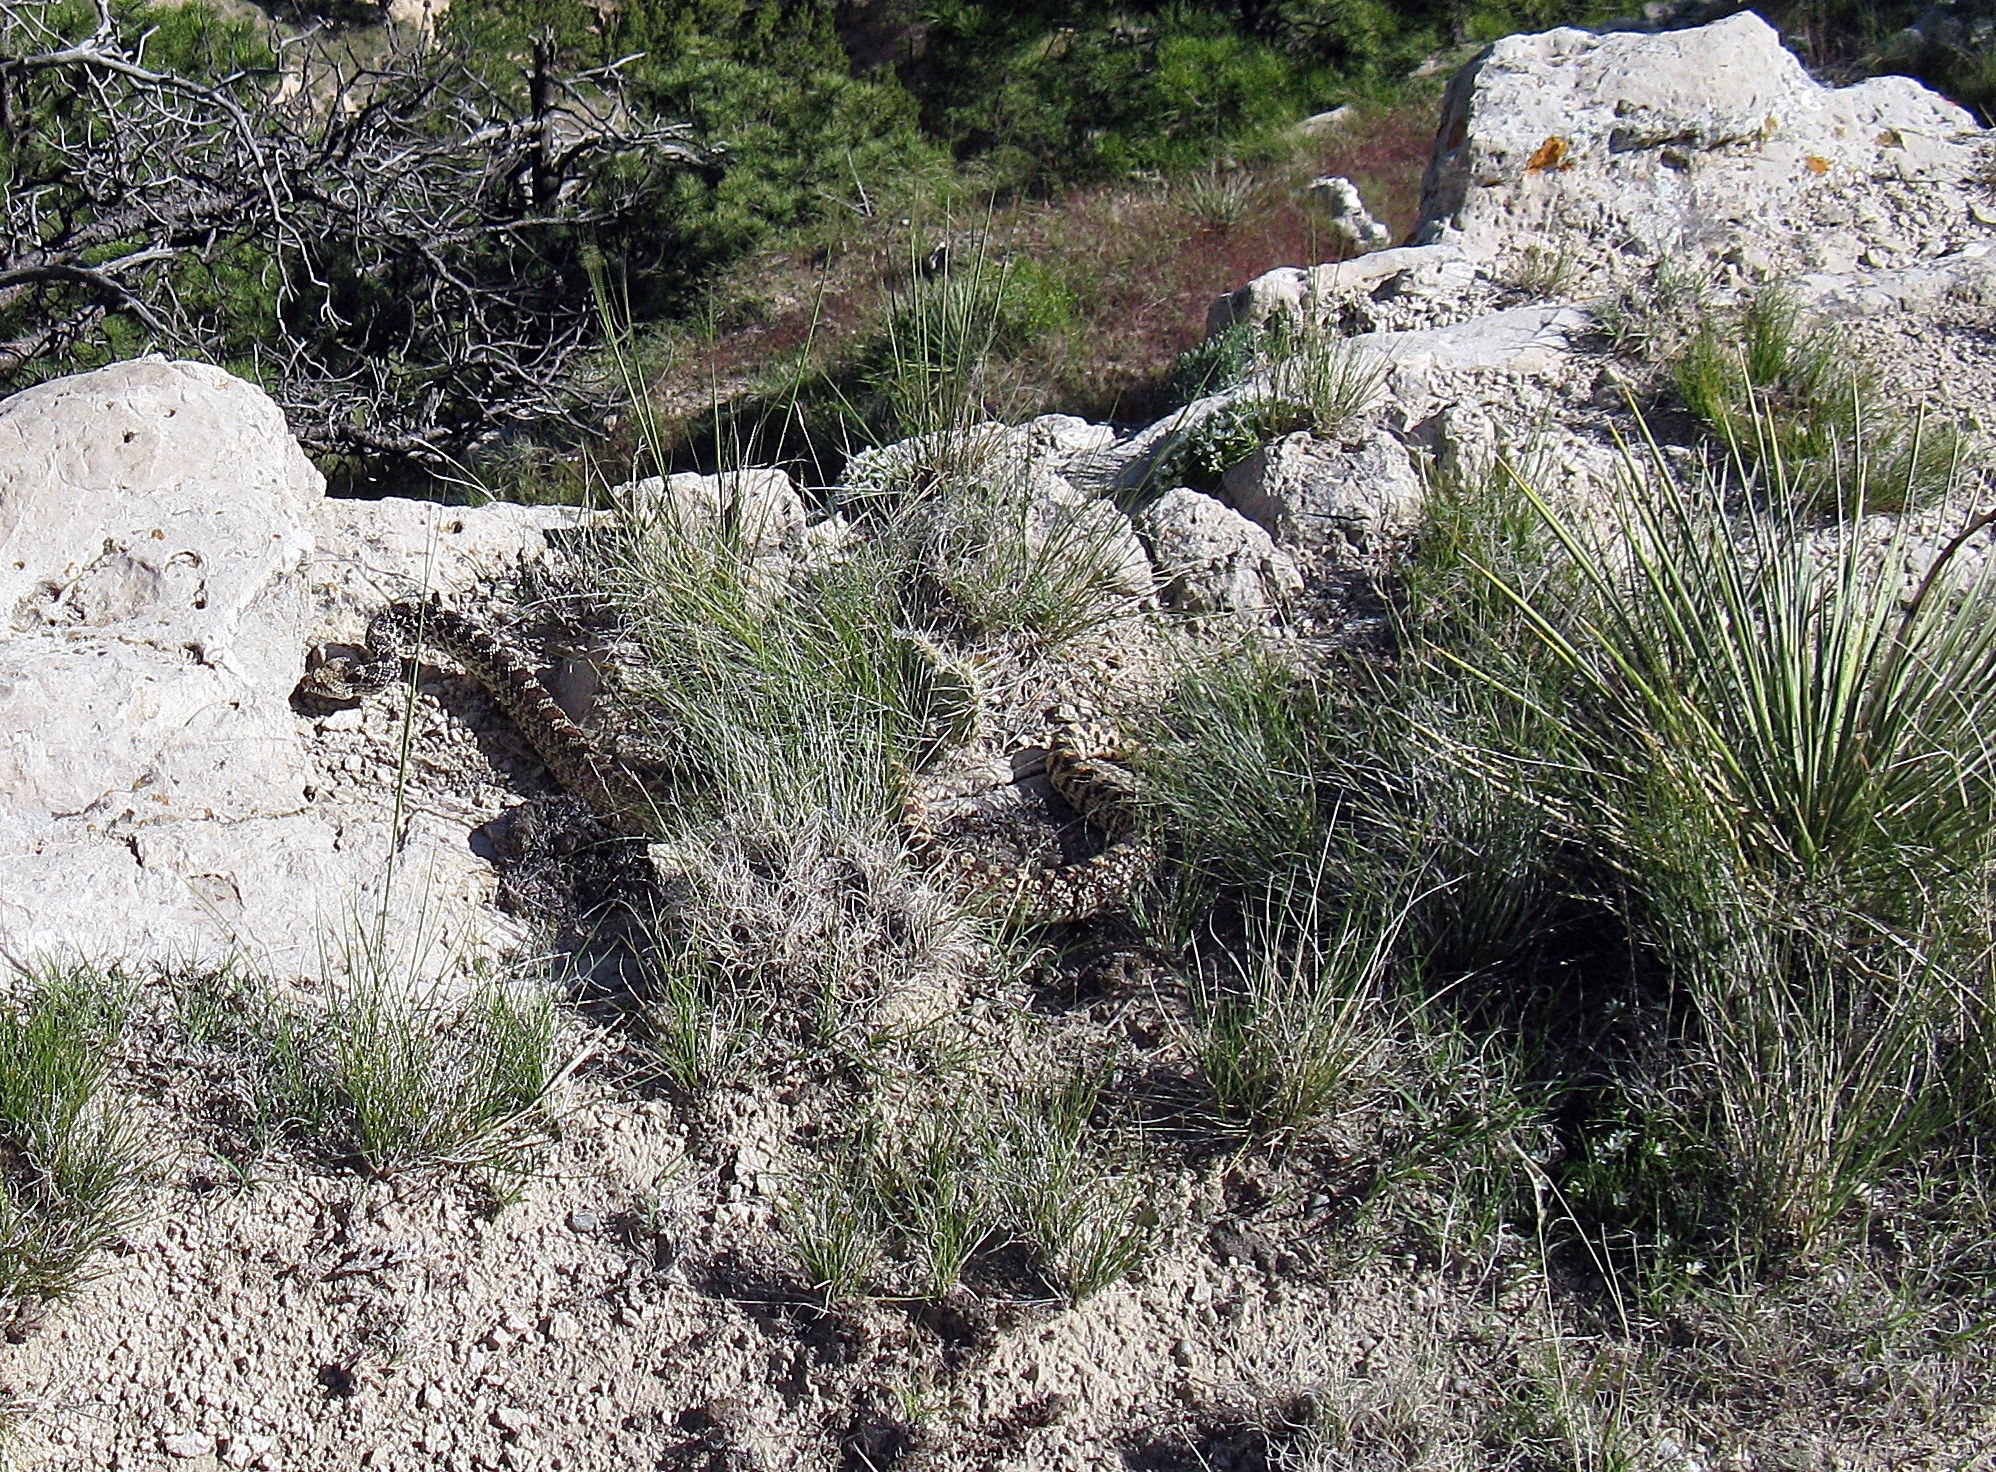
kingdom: Animalia
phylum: Chordata
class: Squamata
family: Colubridae
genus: Pituophis
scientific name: Pituophis catenifer
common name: Gopher snake
